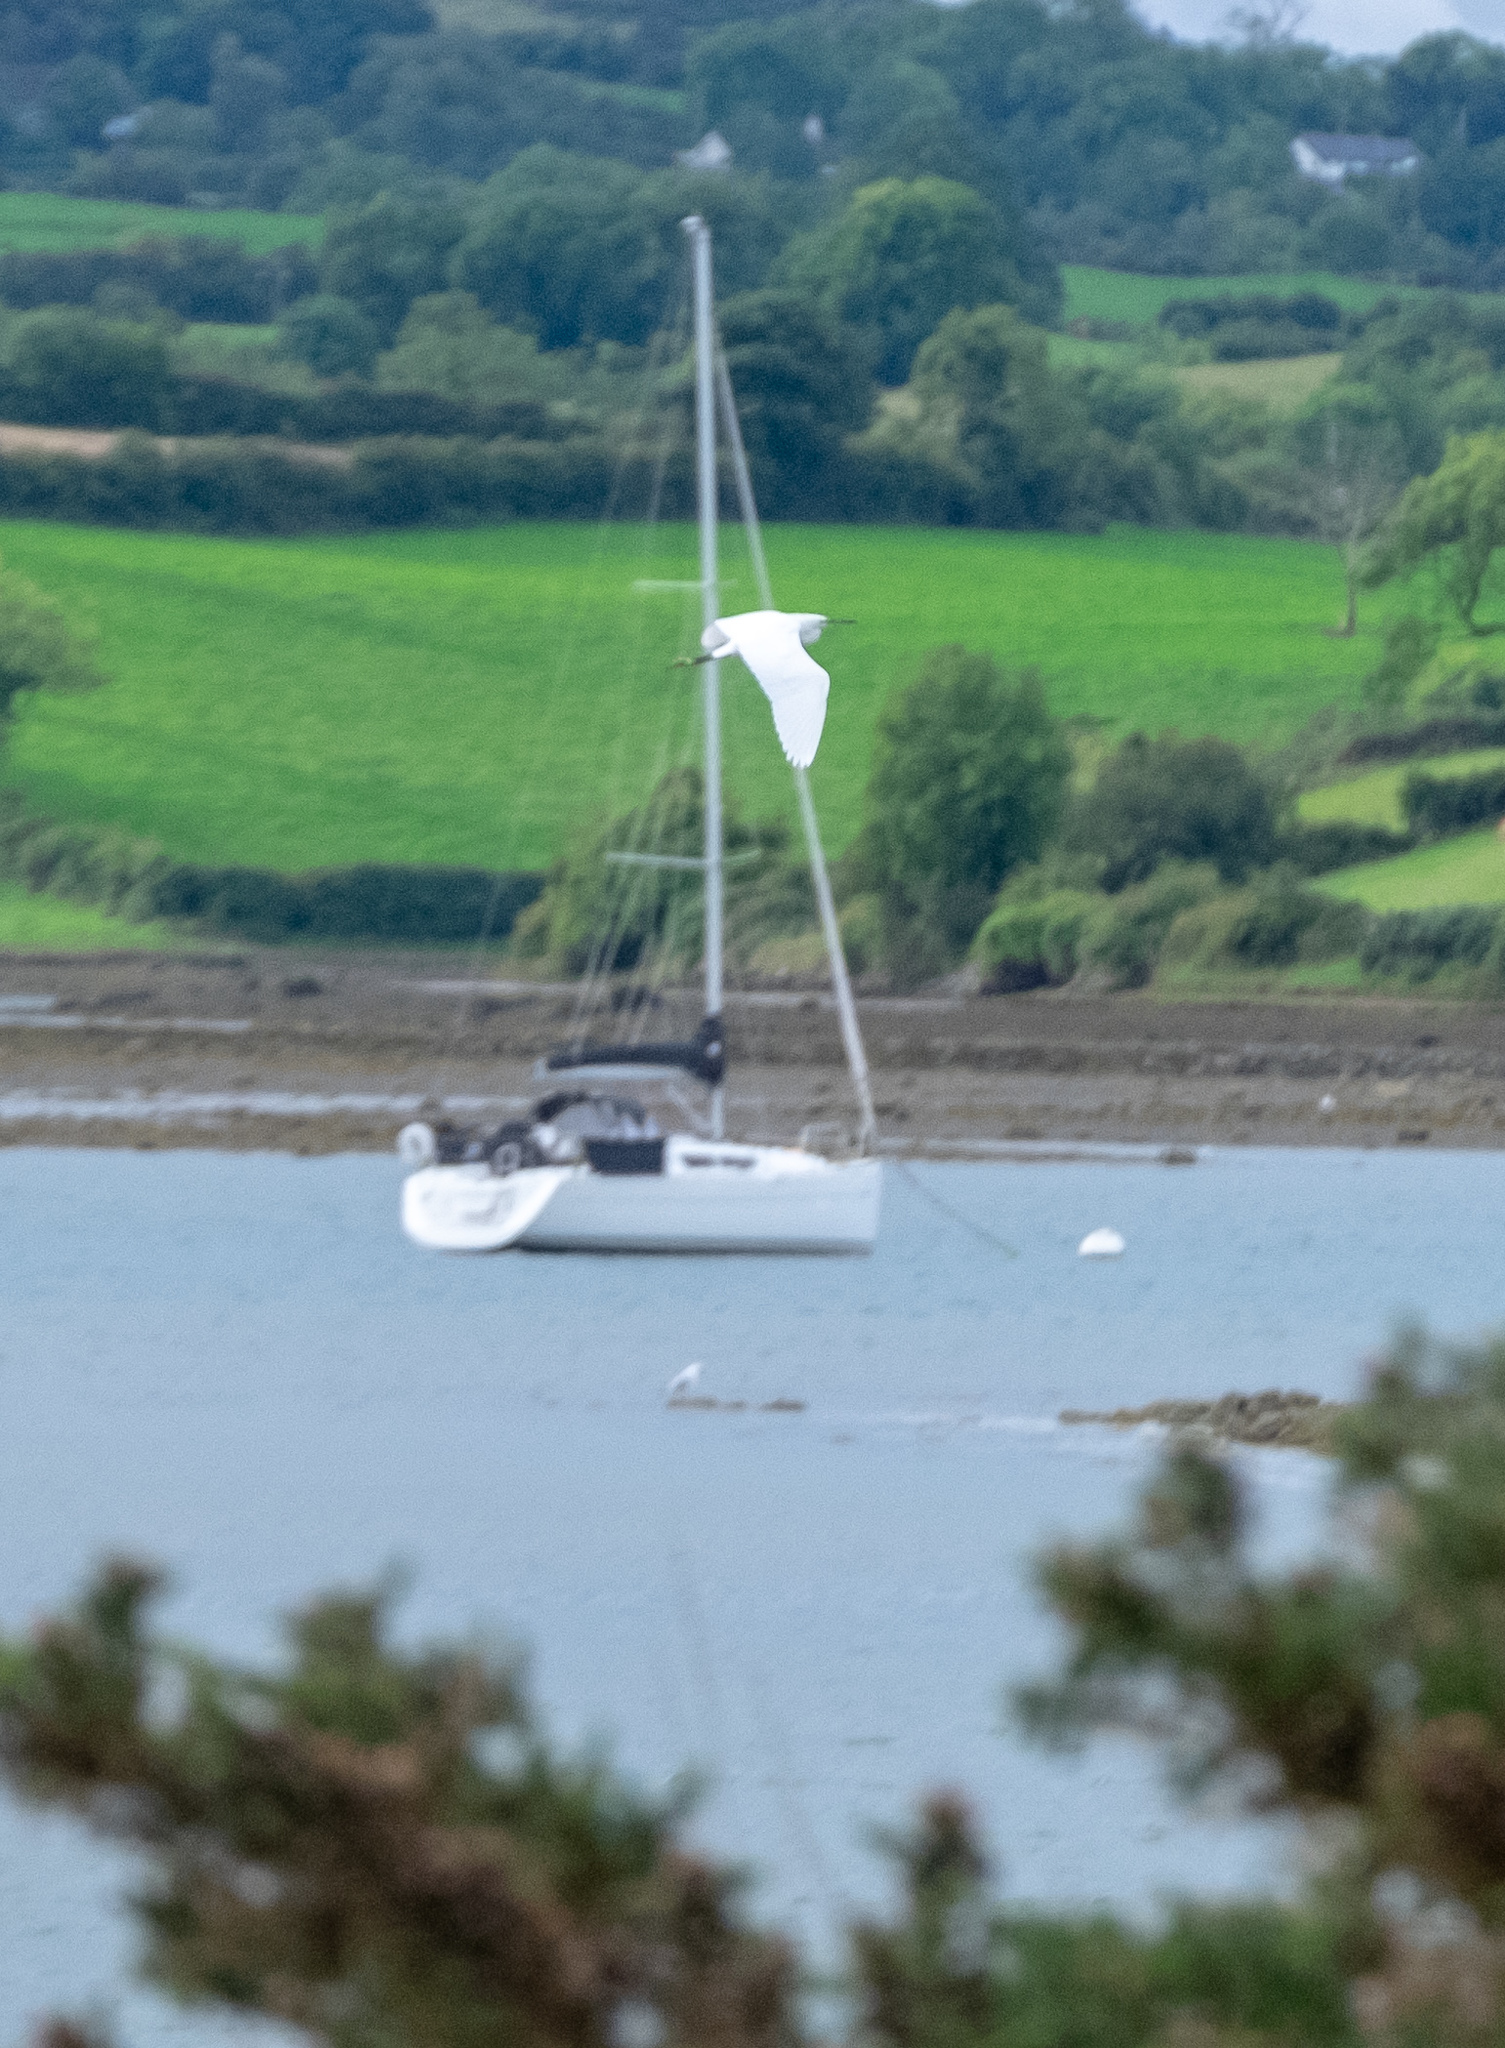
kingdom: Animalia
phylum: Chordata
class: Aves
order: Pelecaniformes
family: Ardeidae
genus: Egretta
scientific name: Egretta garzetta
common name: Little egret
